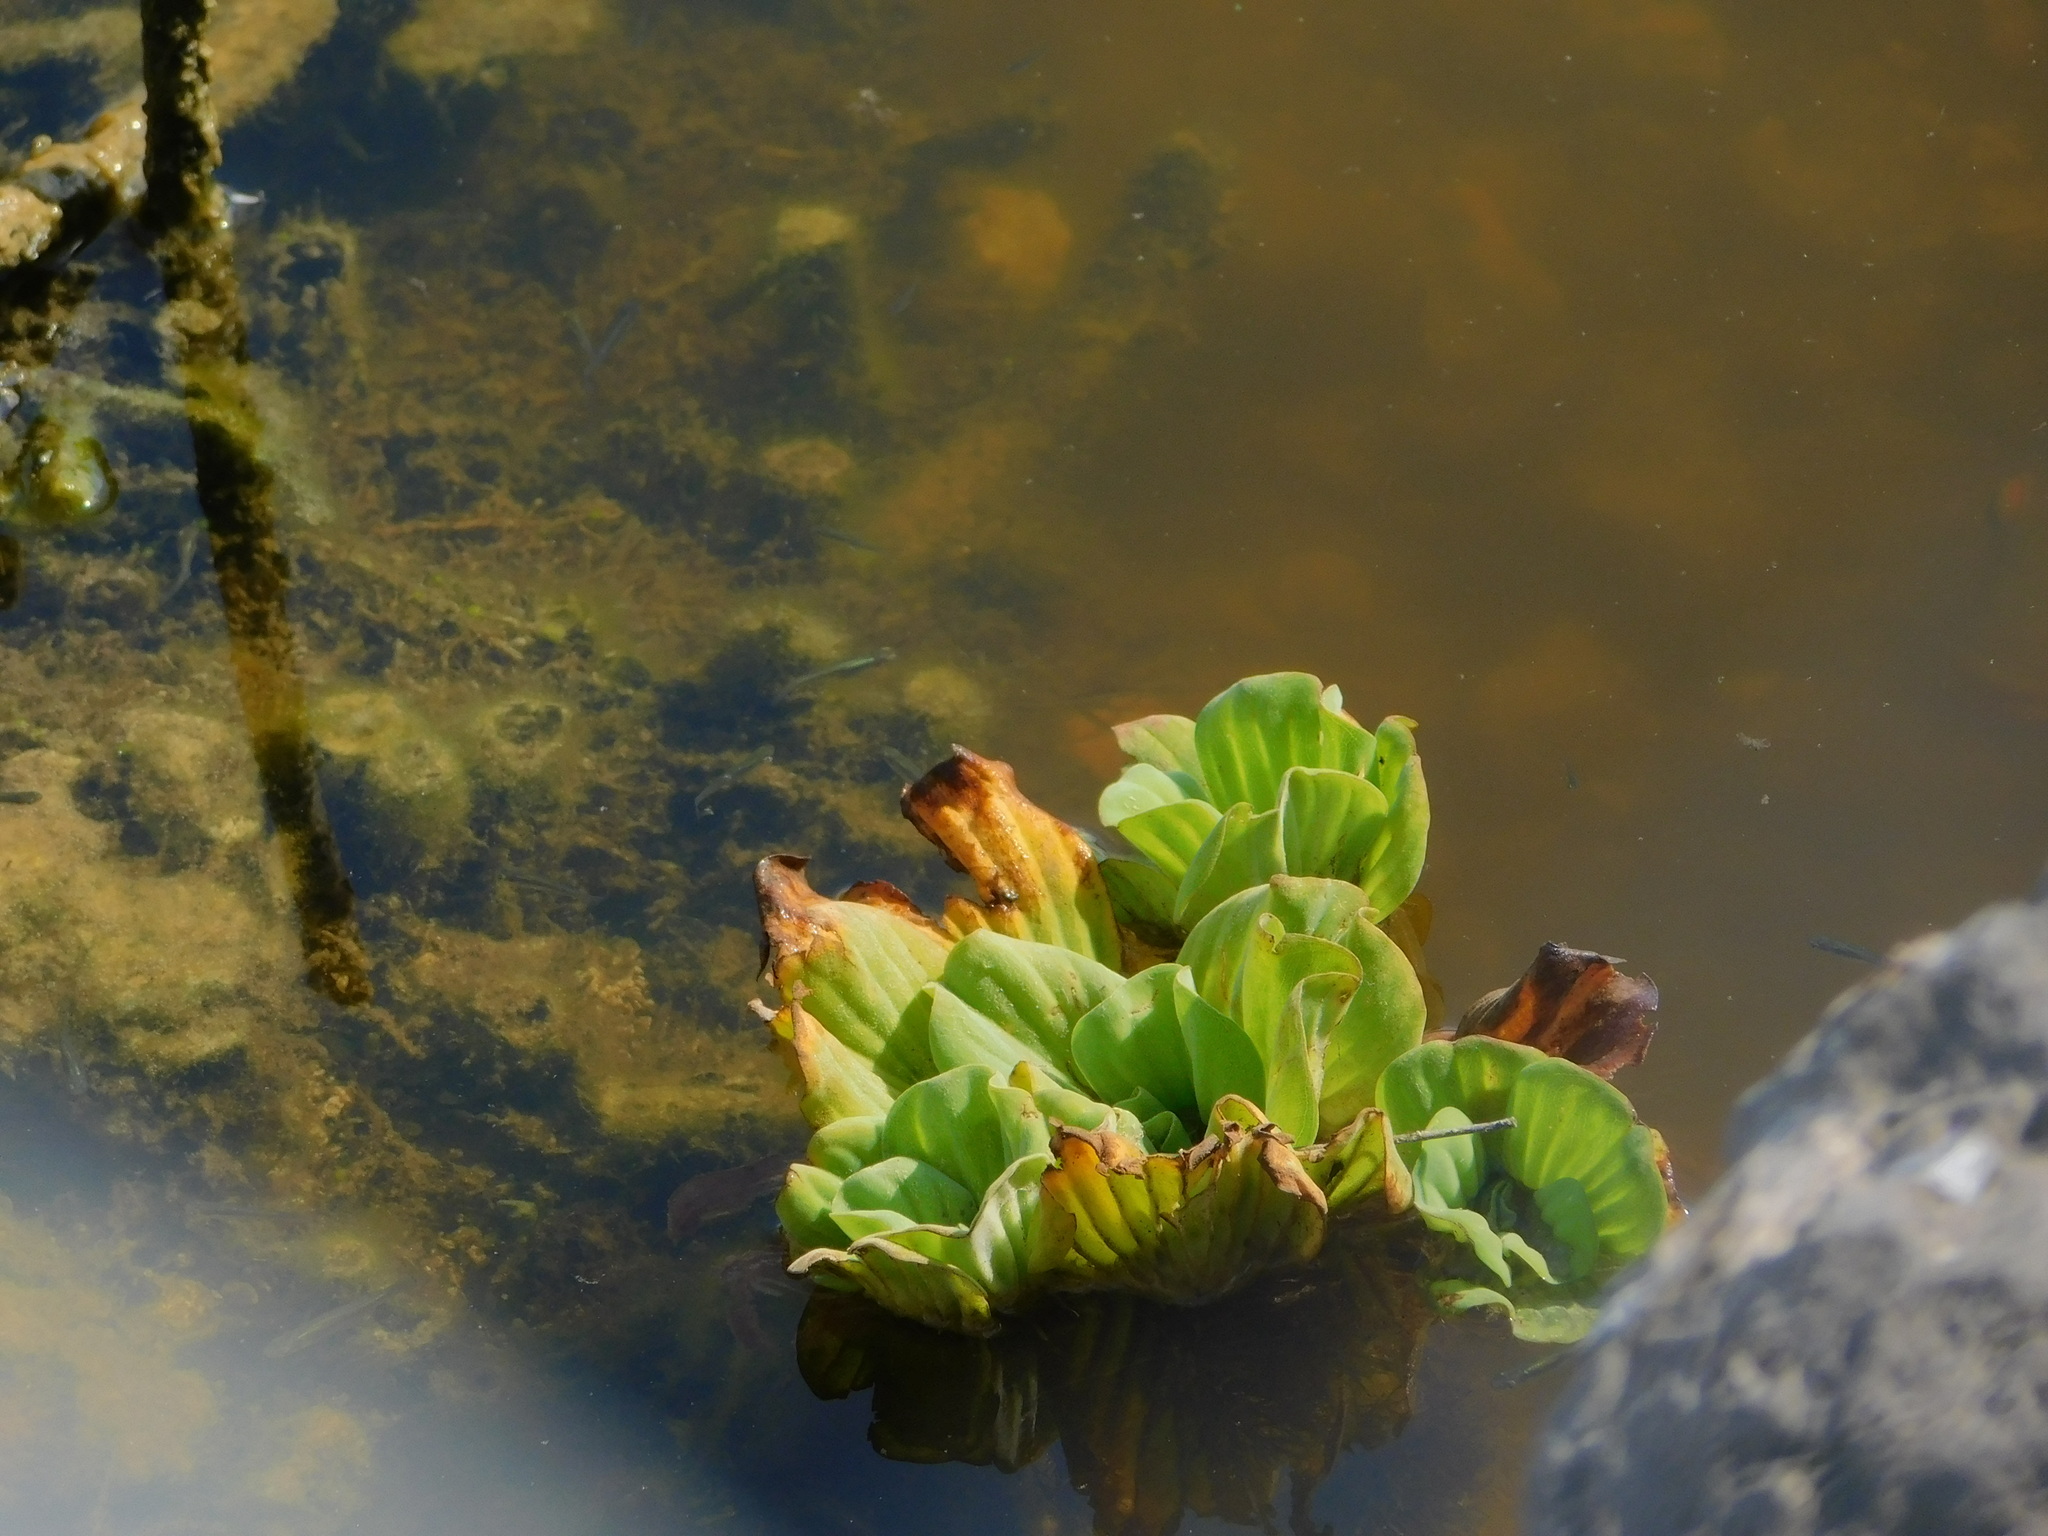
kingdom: Plantae
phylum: Tracheophyta
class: Liliopsida
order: Alismatales
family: Araceae
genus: Pistia
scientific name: Pistia stratiotes
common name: Water lettuce
